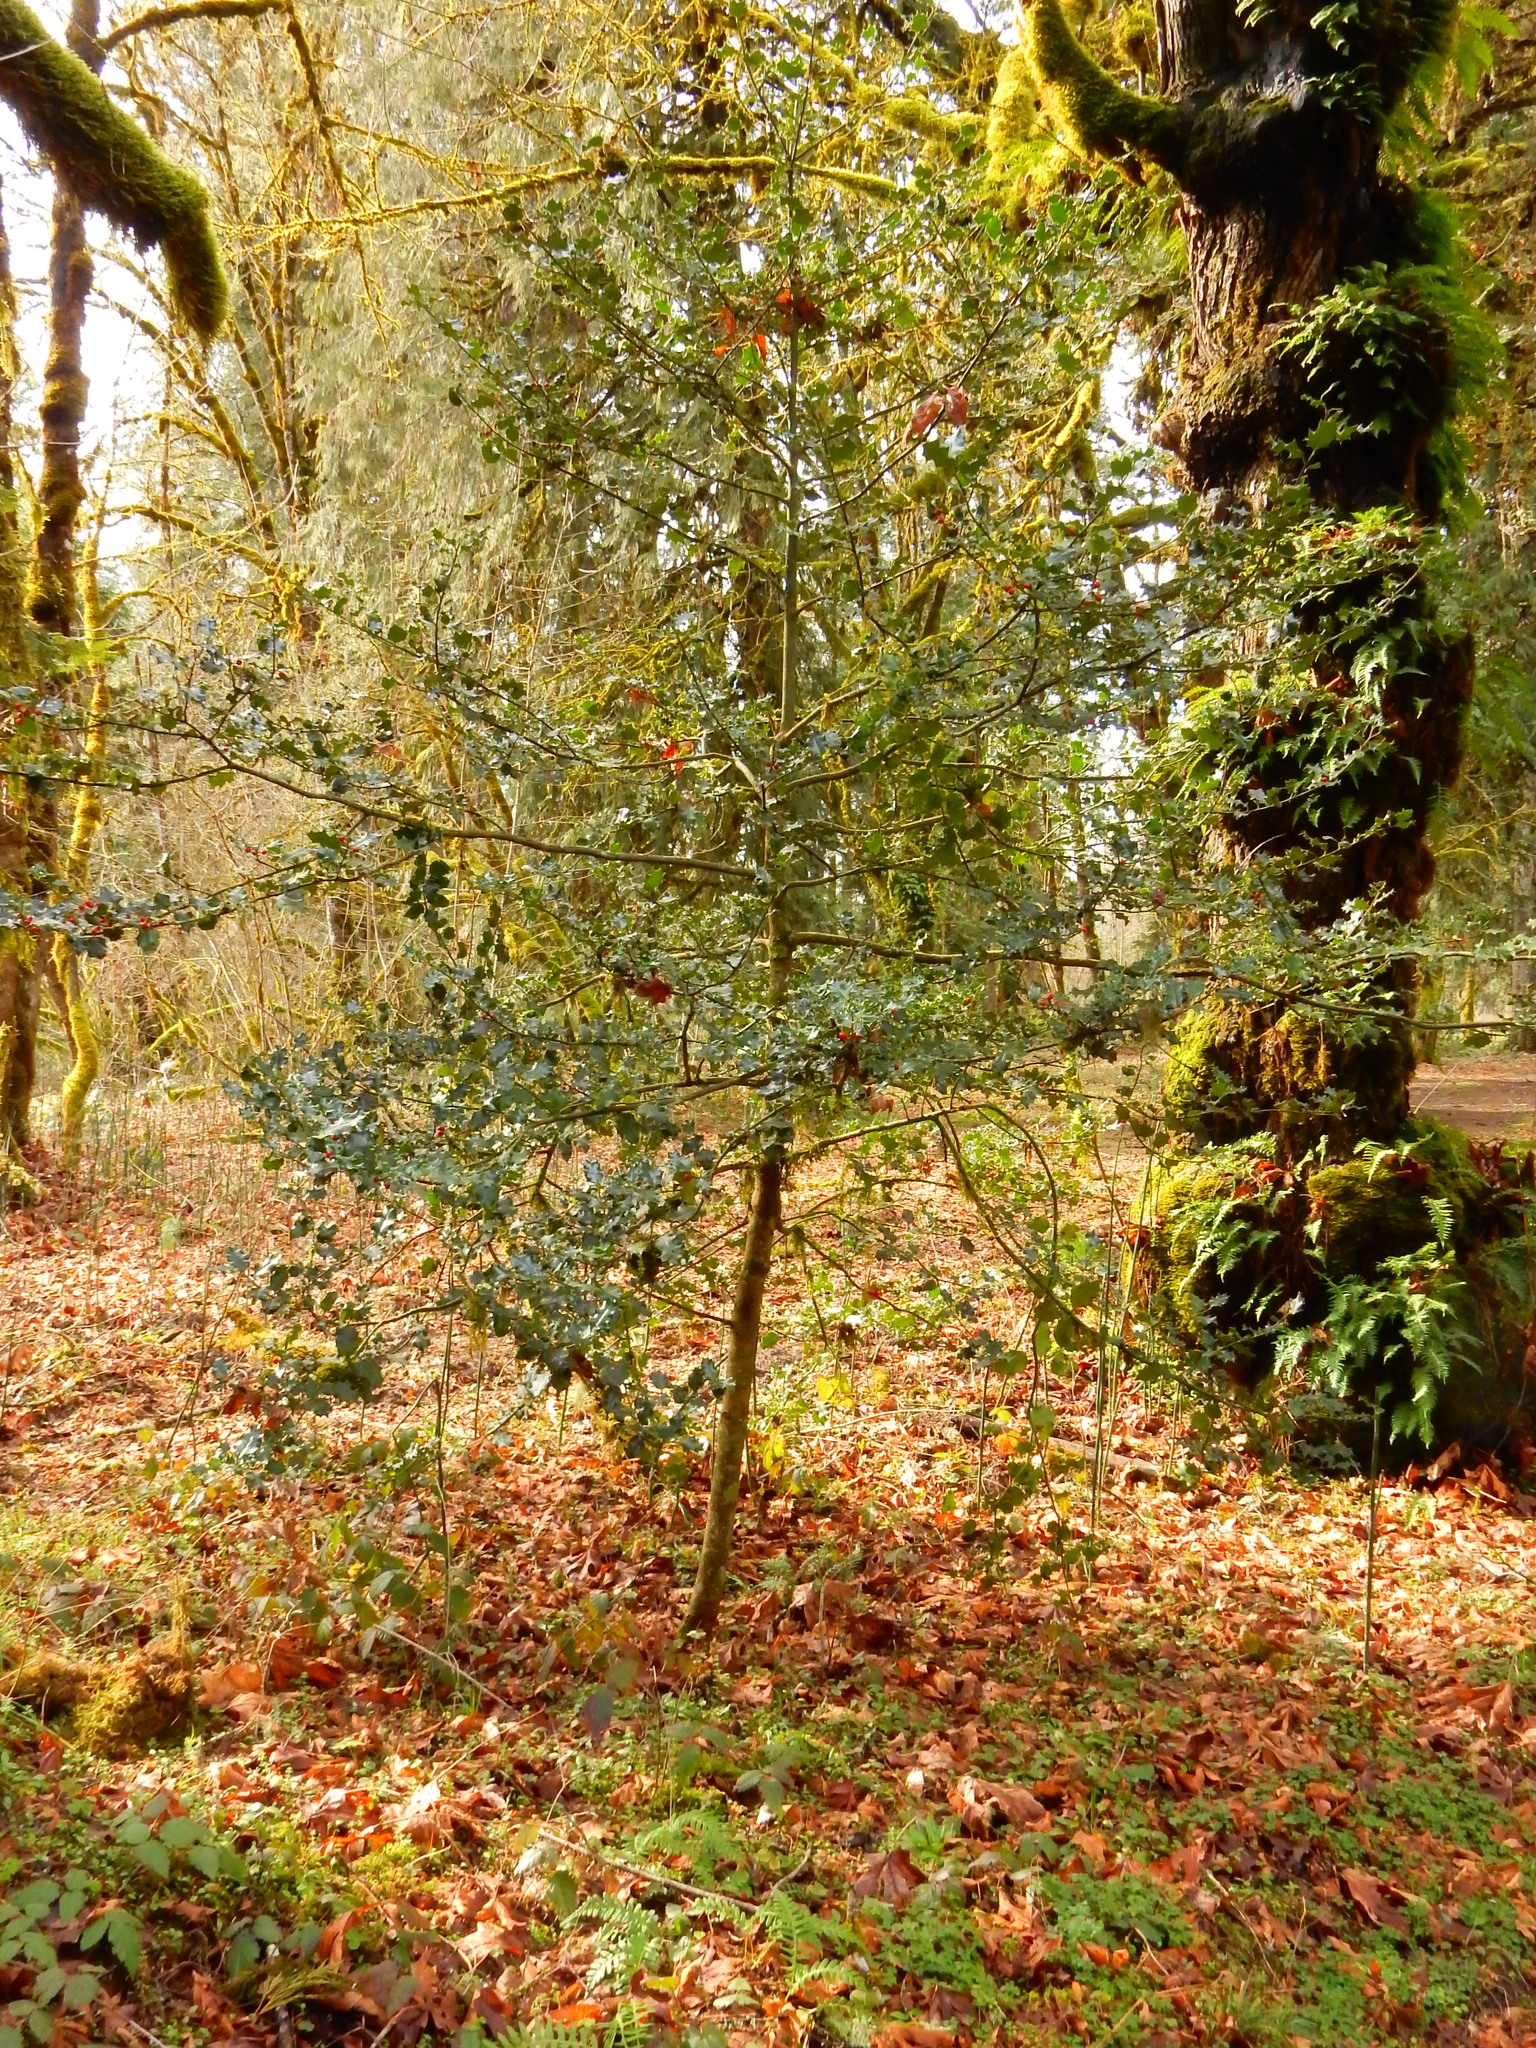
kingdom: Plantae
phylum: Tracheophyta
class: Magnoliopsida
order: Aquifoliales
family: Aquifoliaceae
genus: Ilex
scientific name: Ilex aquifolium
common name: English holly
